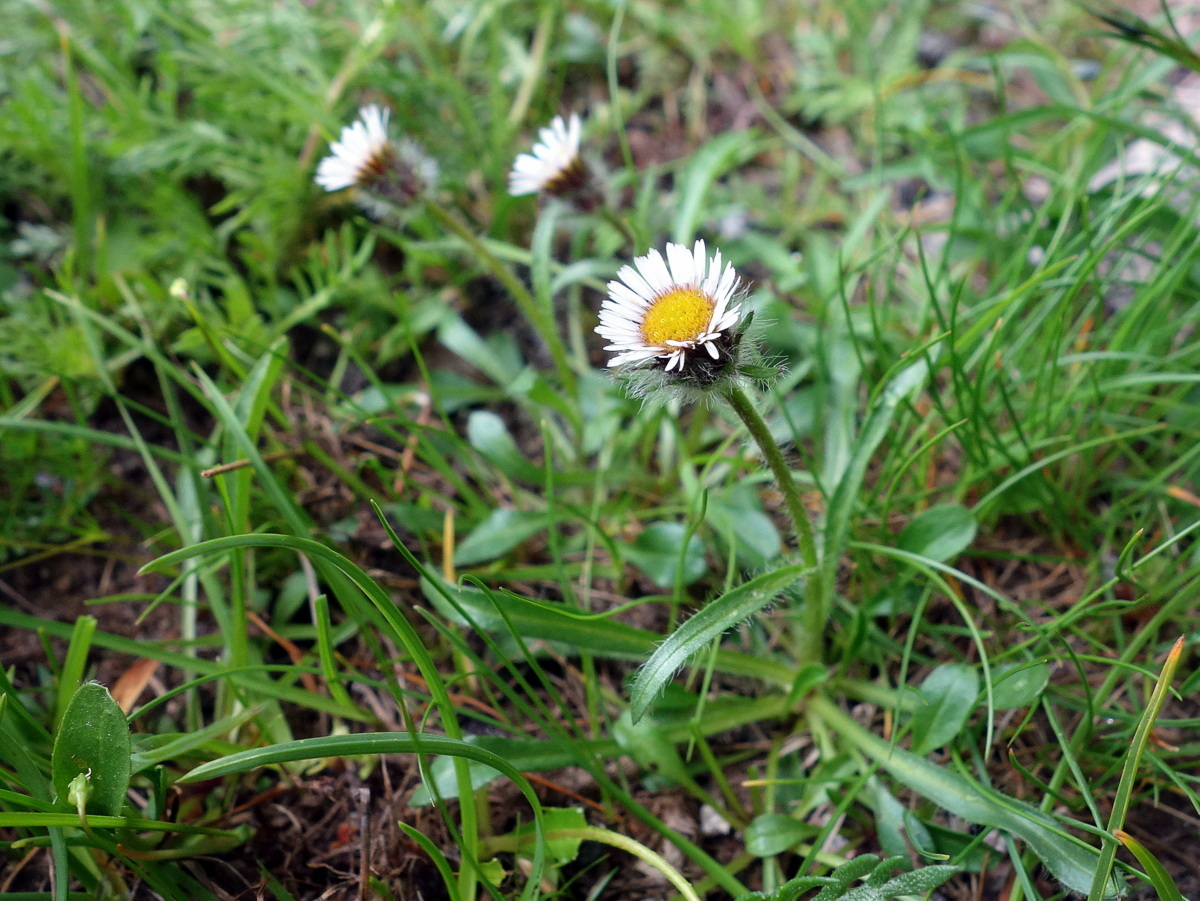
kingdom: Plantae
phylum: Tracheophyta
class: Magnoliopsida
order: Asterales
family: Asteraceae
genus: Erigeron
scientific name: Erigeron uniflorus
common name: Northern daisy
